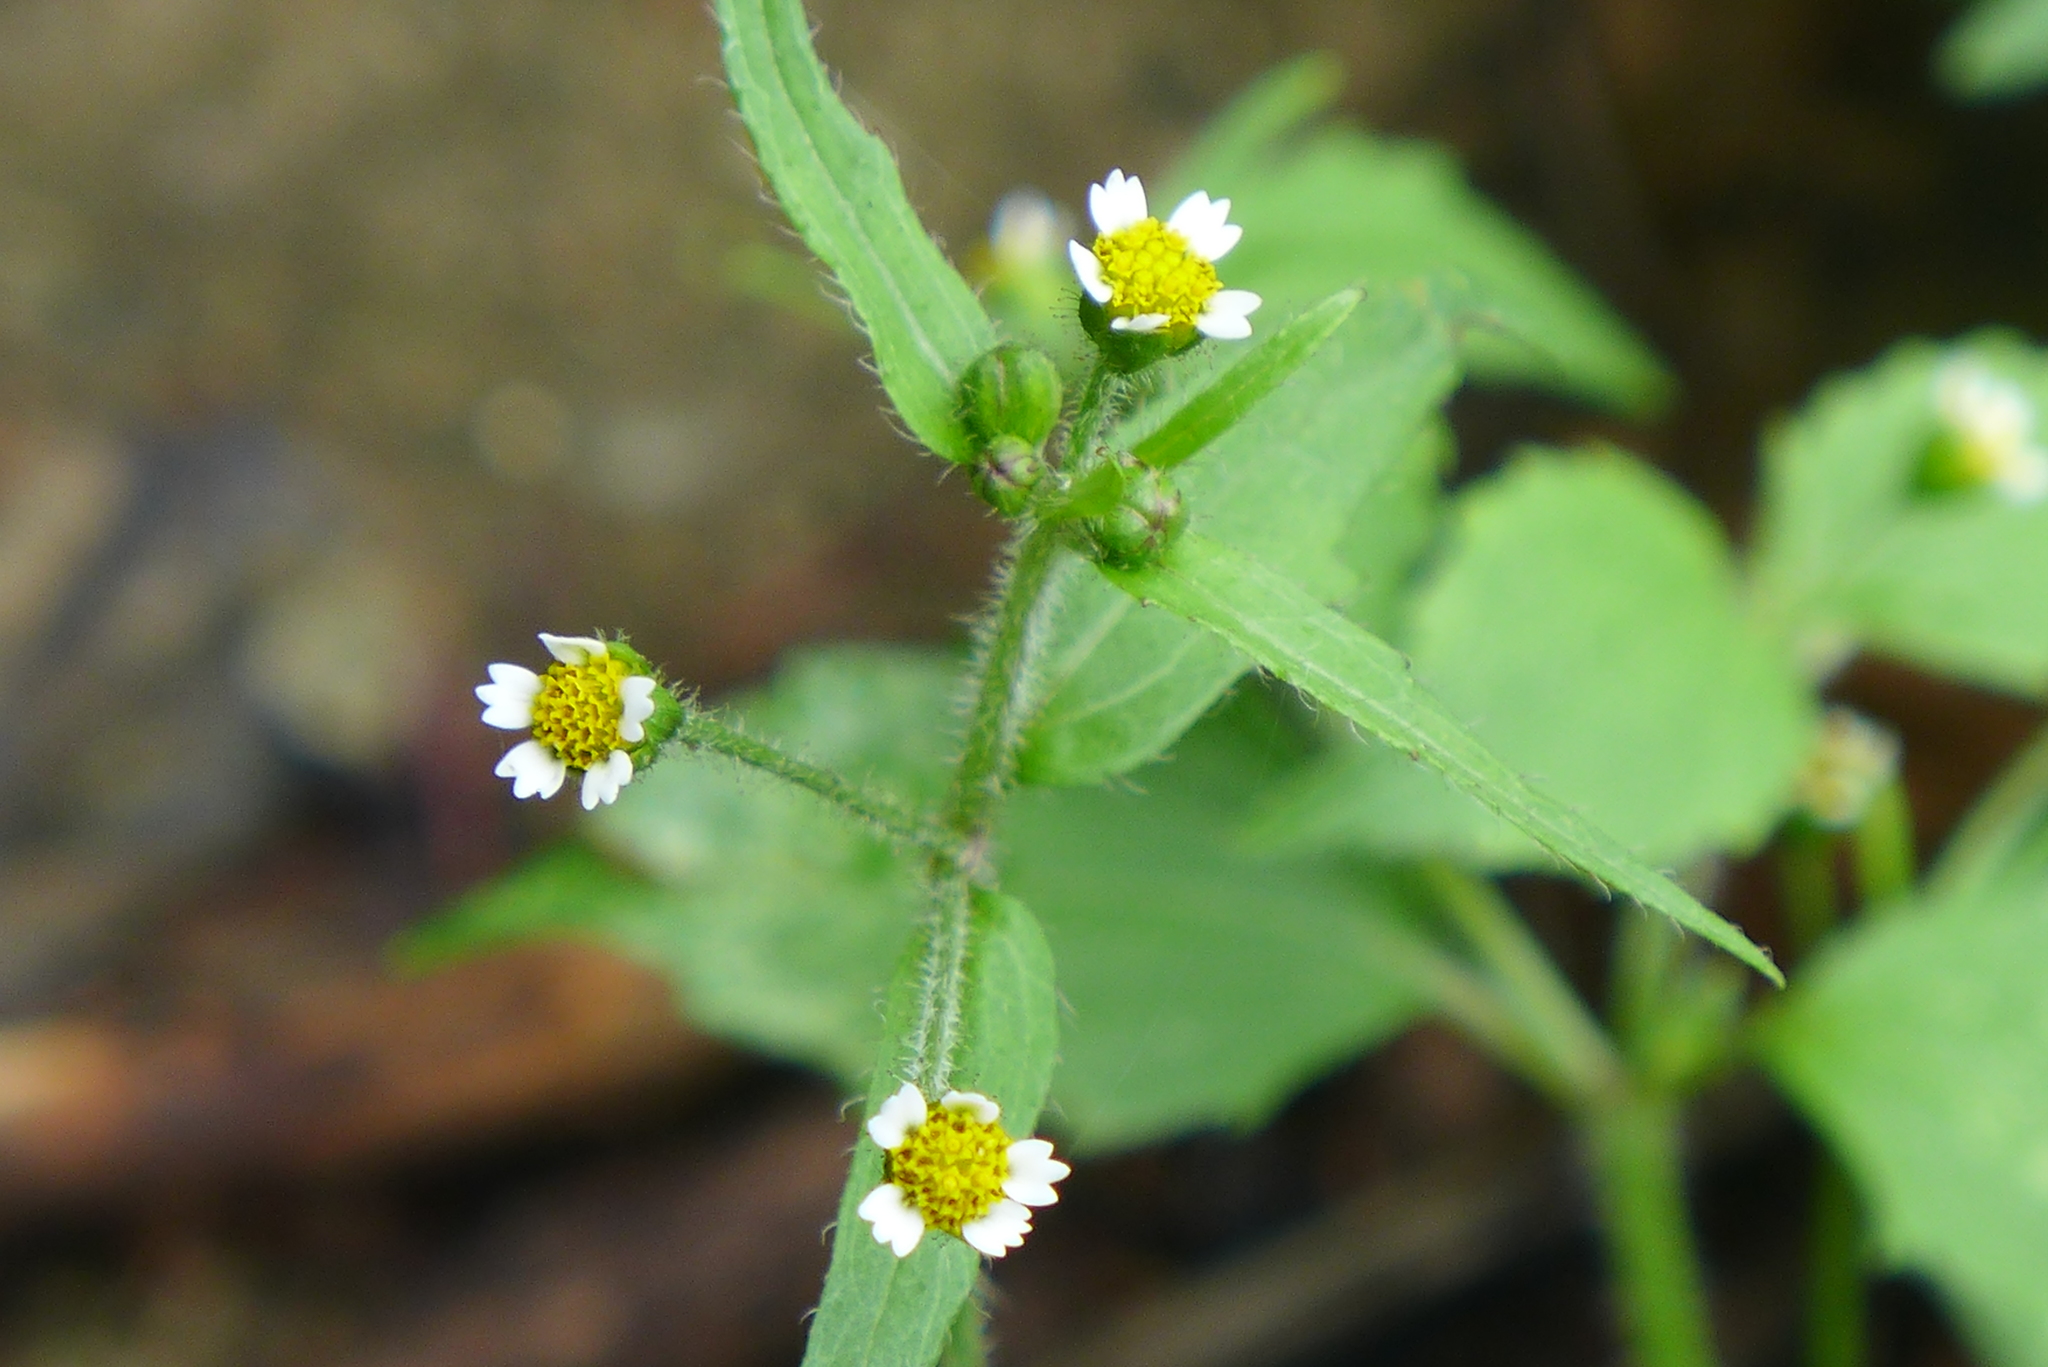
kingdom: Plantae
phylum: Tracheophyta
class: Magnoliopsida
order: Asterales
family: Asteraceae
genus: Galinsoga
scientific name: Galinsoga quadriradiata
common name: Shaggy soldier
